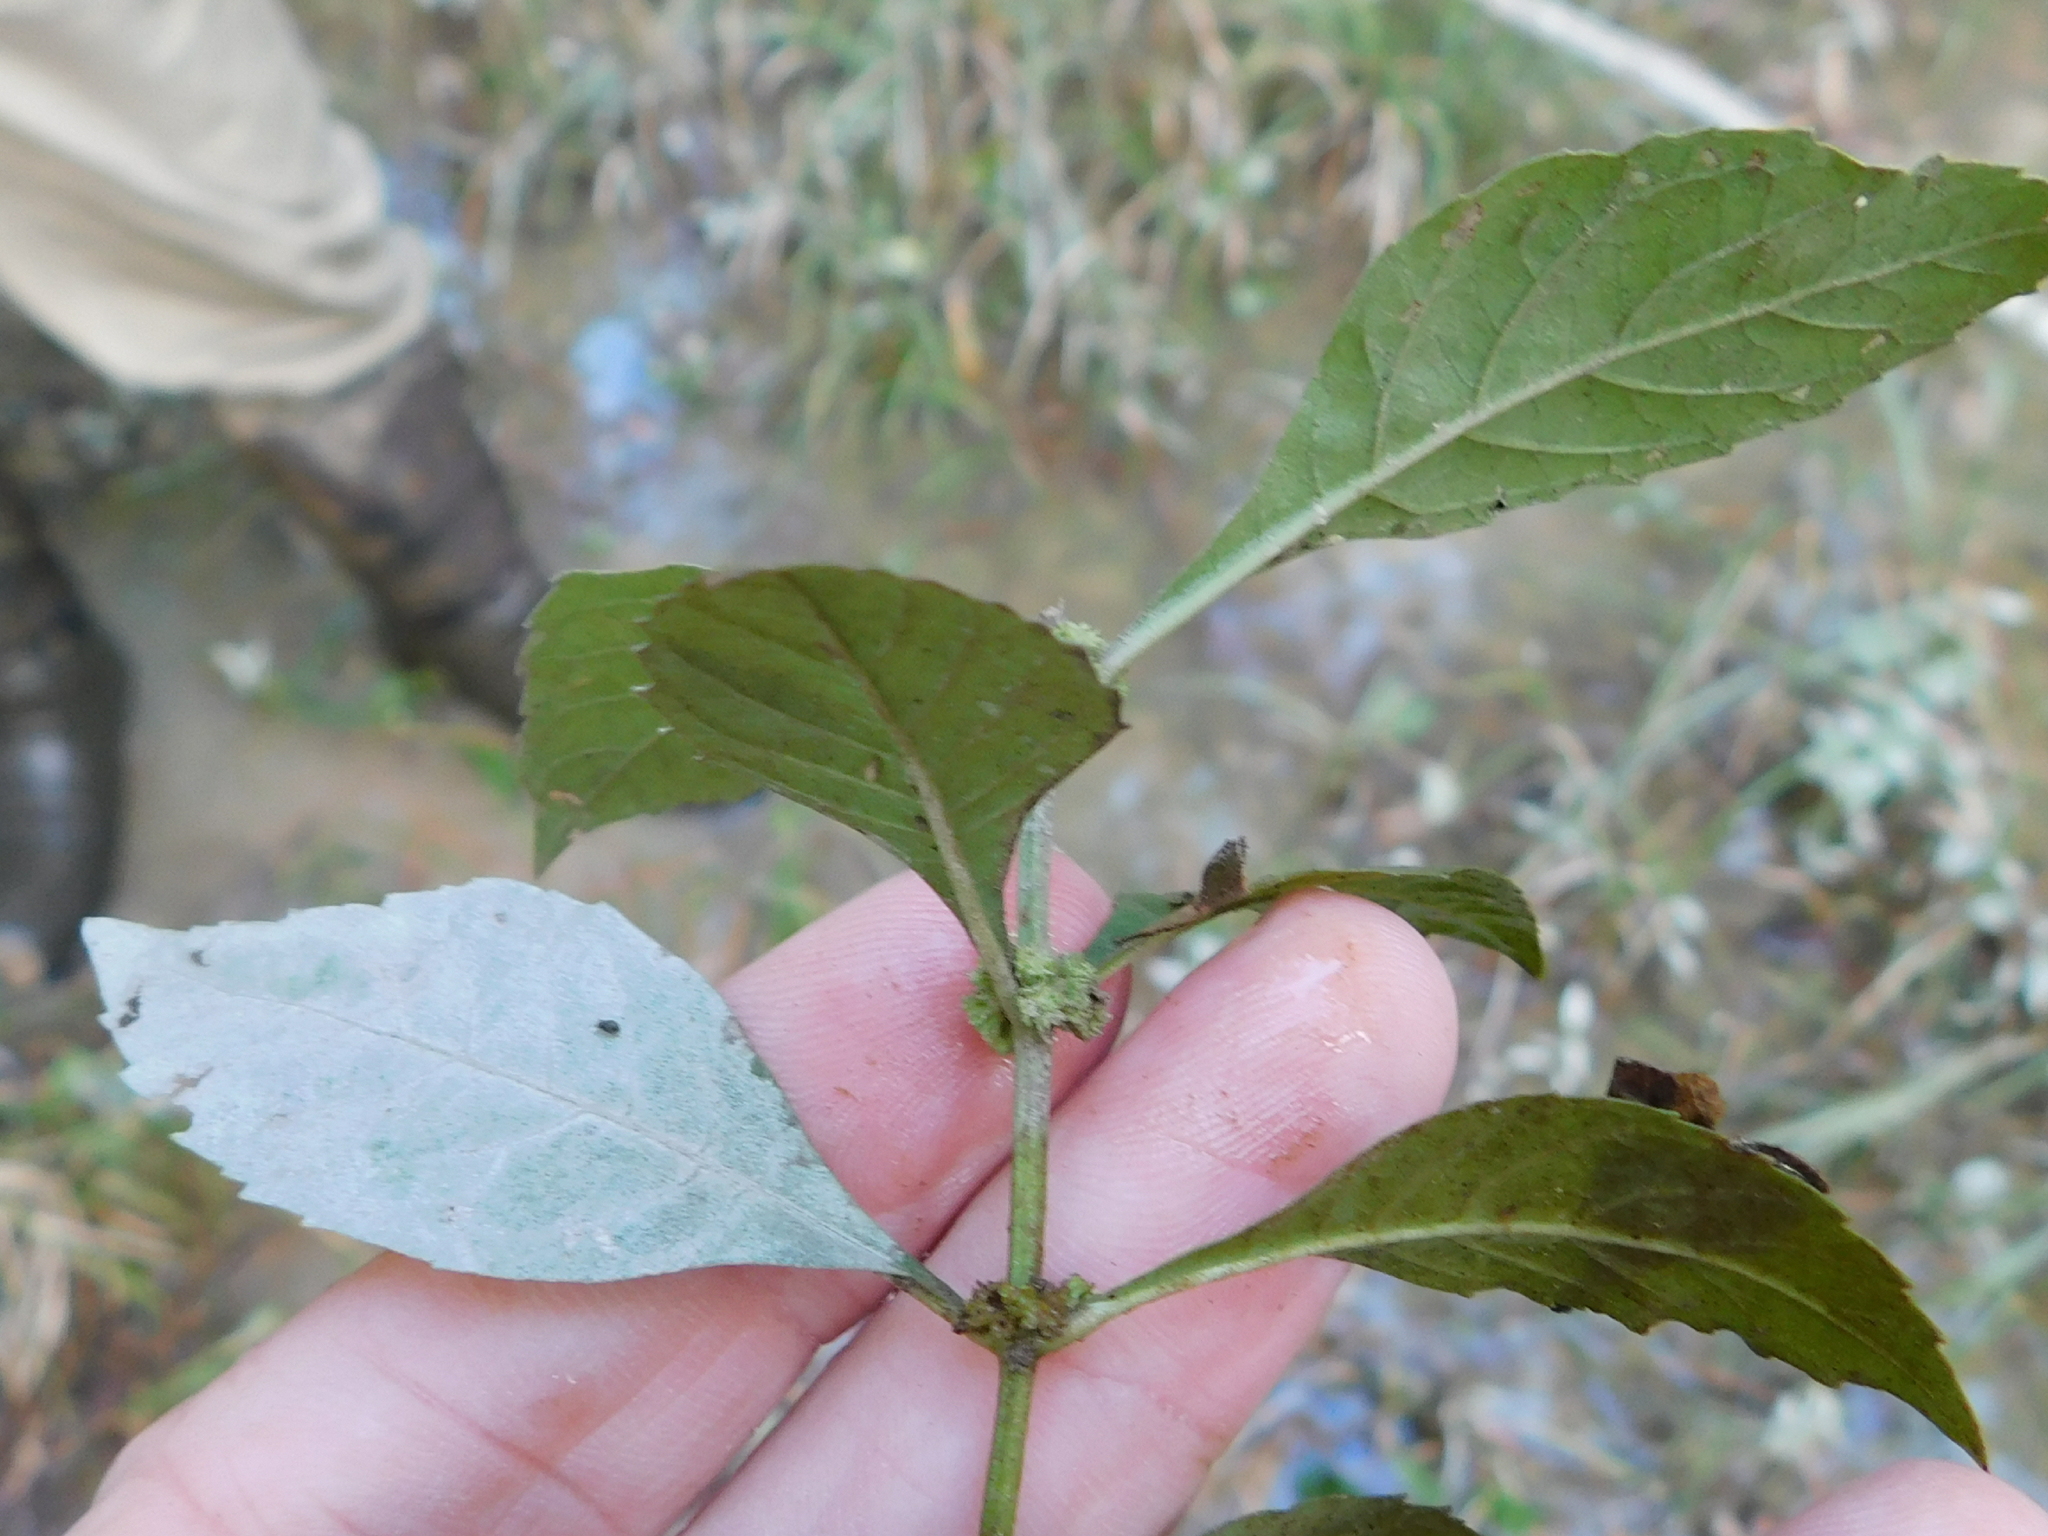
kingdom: Plantae
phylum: Tracheophyta
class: Magnoliopsida
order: Lamiales
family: Lamiaceae
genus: Lycopus
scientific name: Lycopus americanus
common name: American bugleweed
